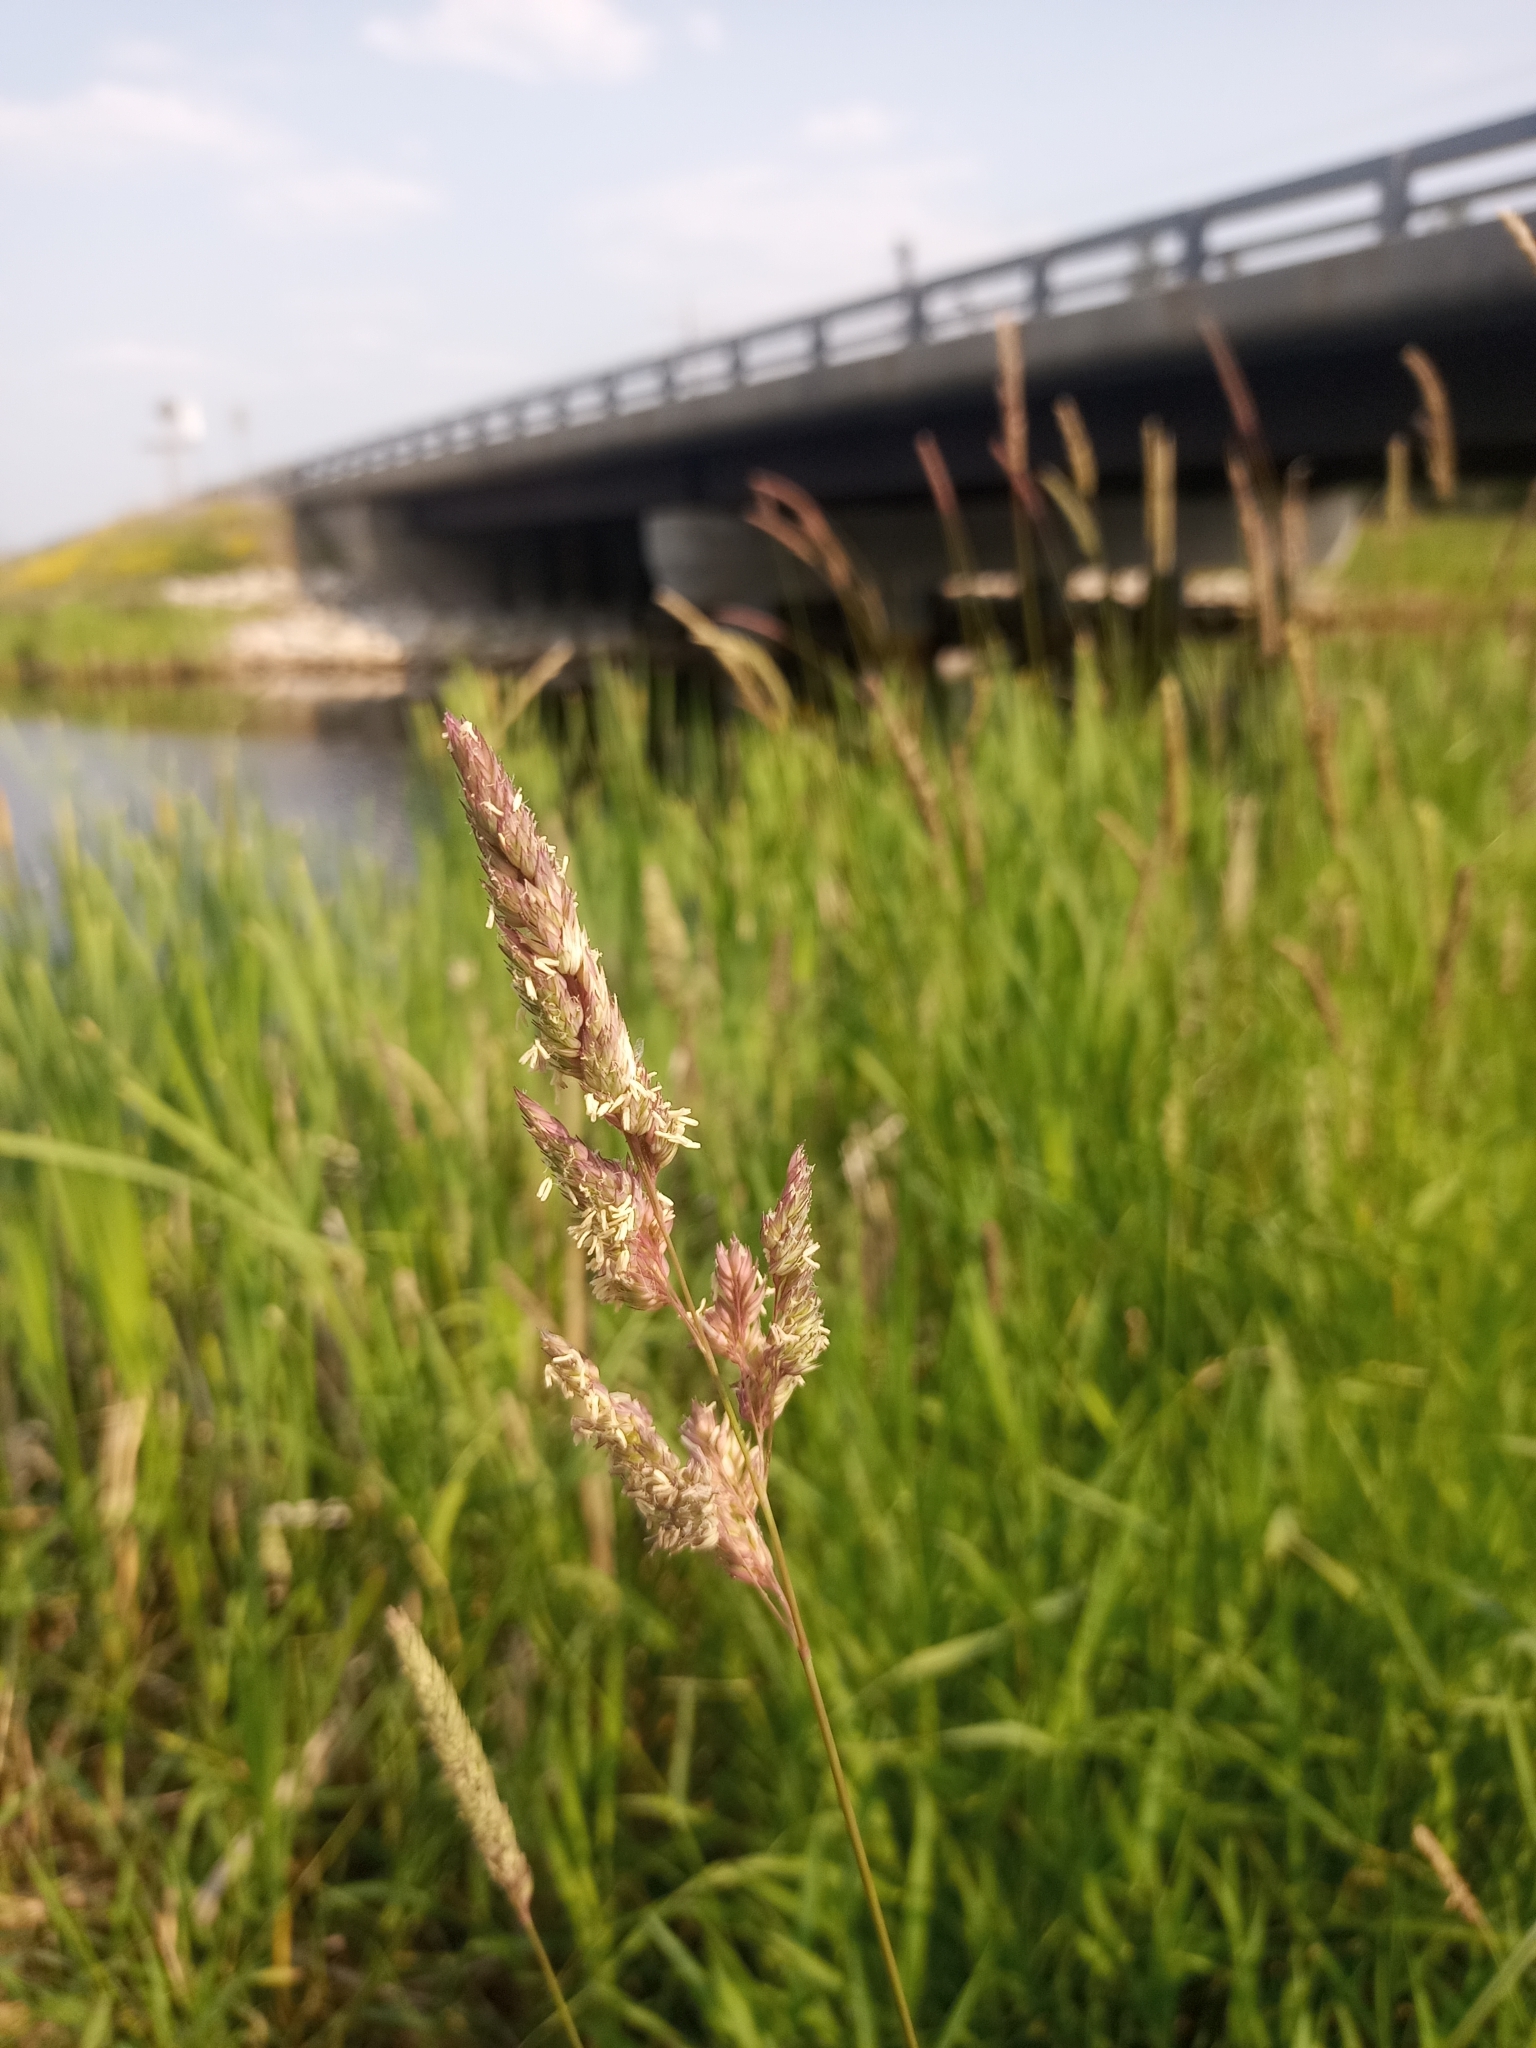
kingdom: Plantae
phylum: Tracheophyta
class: Liliopsida
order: Poales
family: Poaceae
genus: Phalaris
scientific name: Phalaris arundinacea
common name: Reed canary-grass
